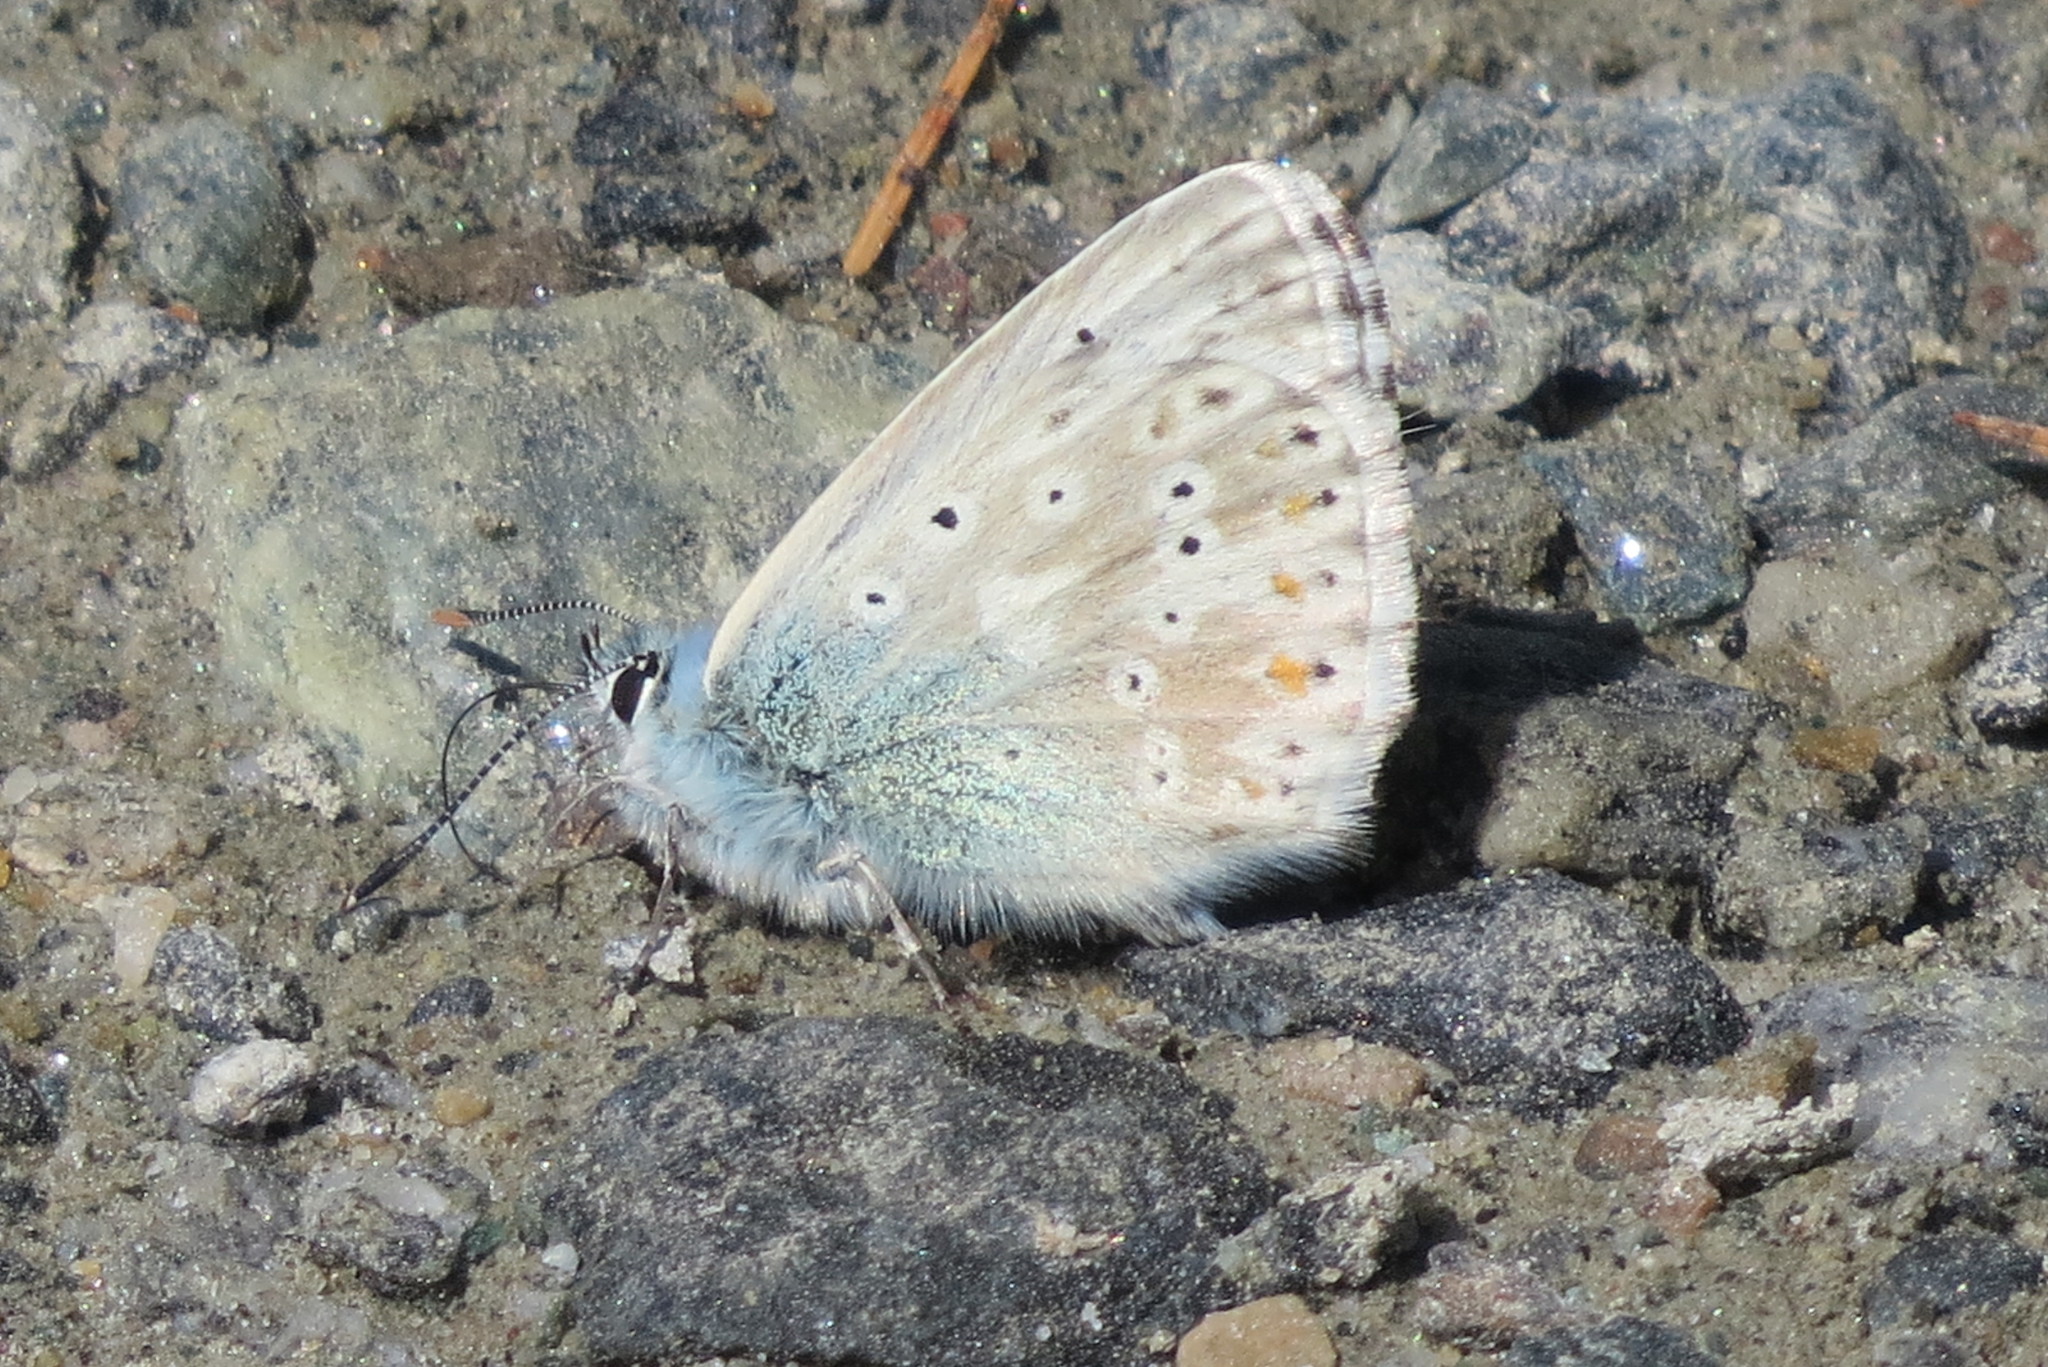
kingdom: Animalia
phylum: Arthropoda
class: Insecta
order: Lepidoptera
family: Lycaenidae
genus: Lysandra
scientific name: Lysandra coridon
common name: Chalkhill blue
